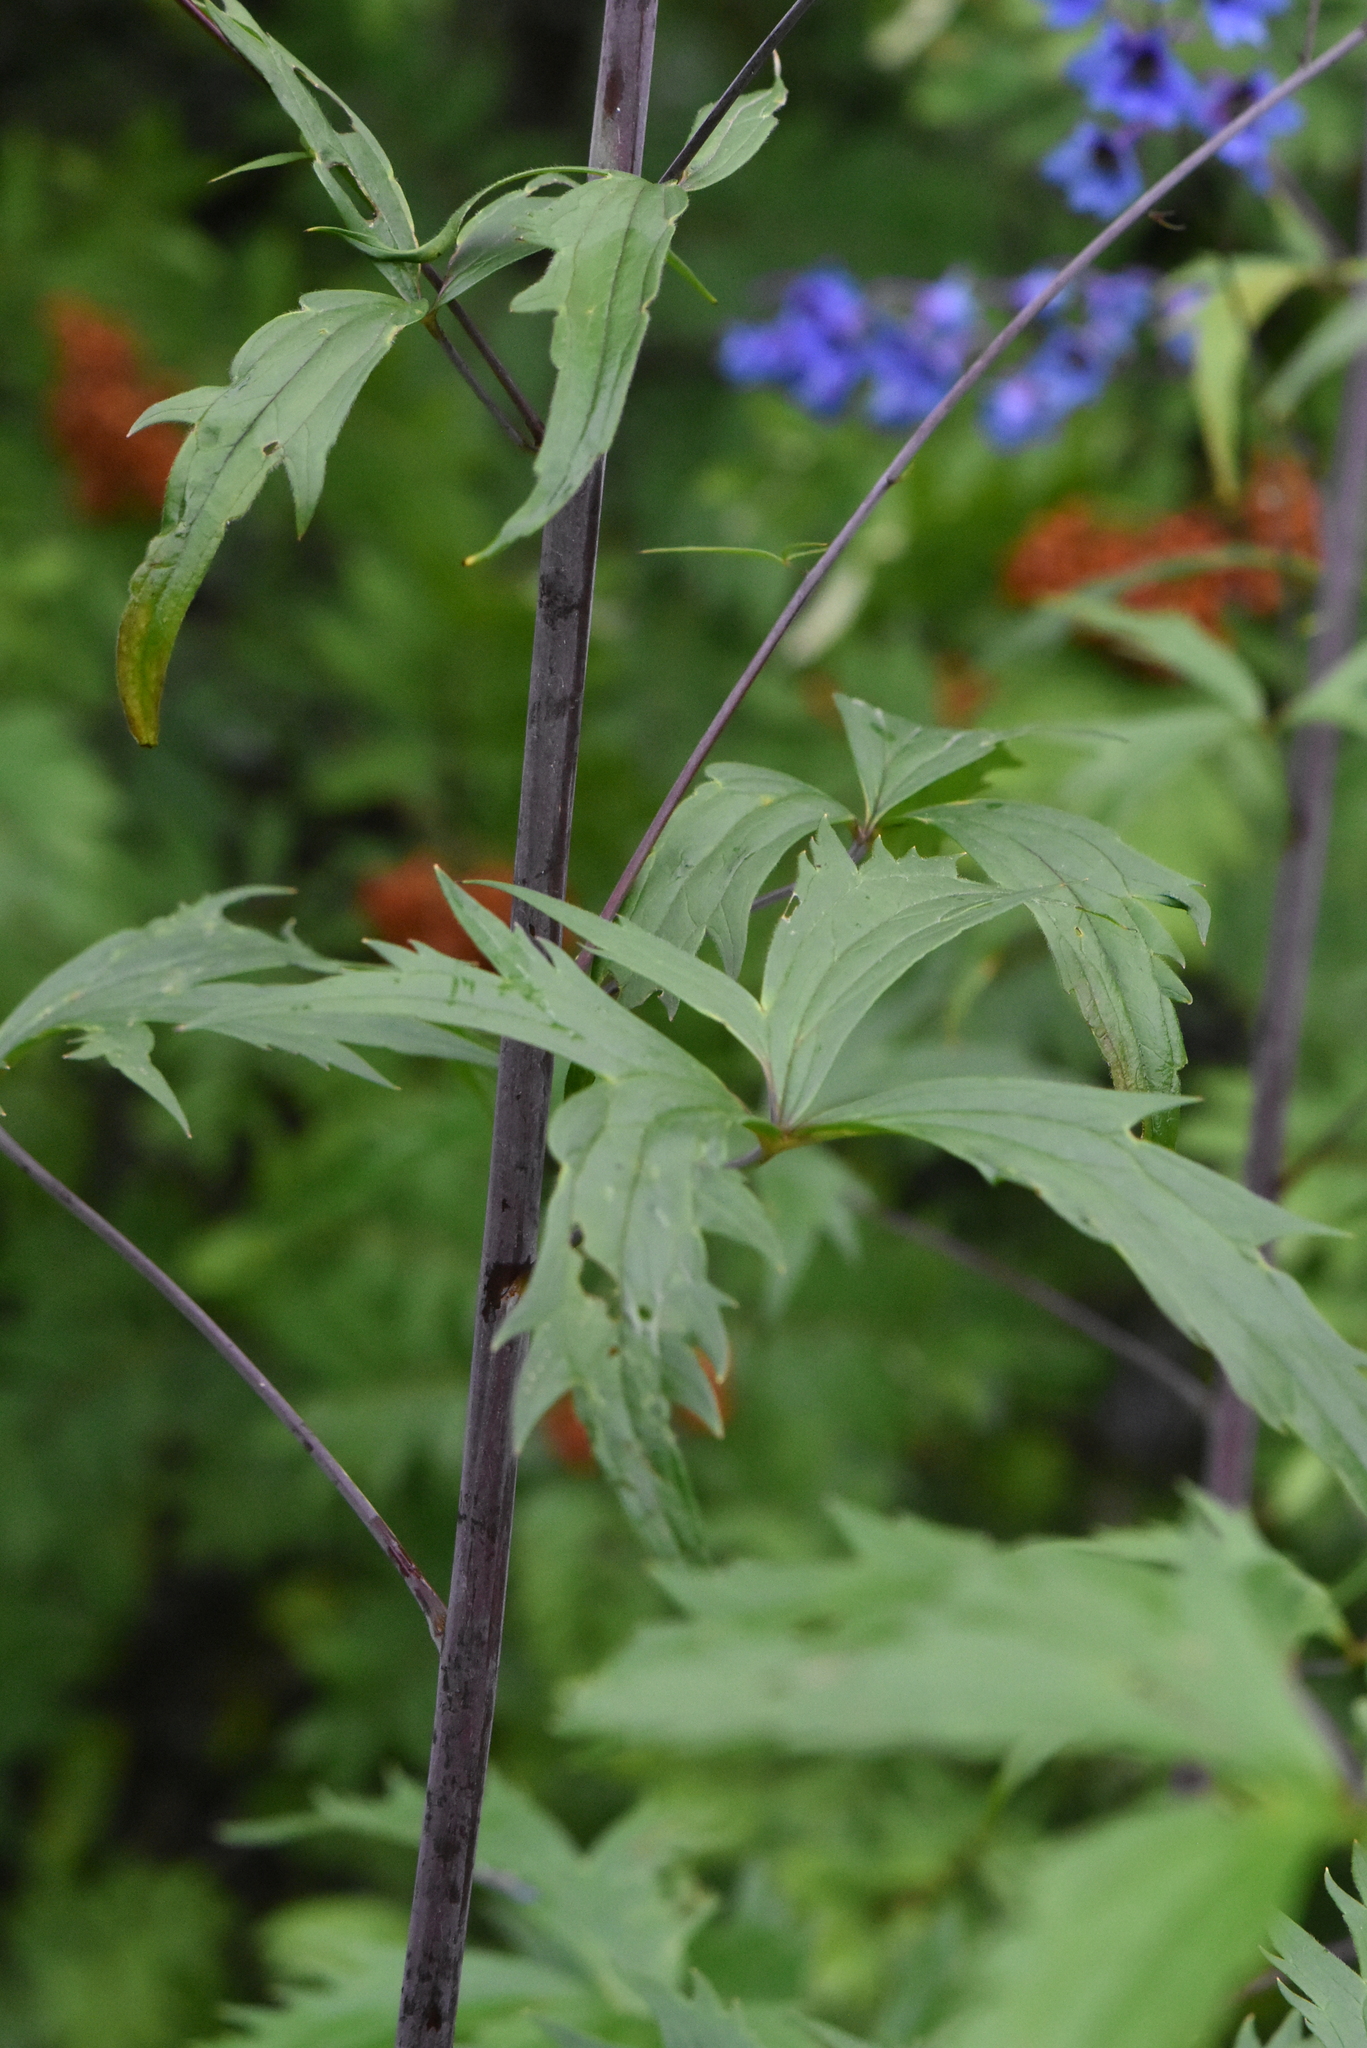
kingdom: Plantae
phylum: Tracheophyta
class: Magnoliopsida
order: Ranunculales
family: Ranunculaceae
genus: Delphinium
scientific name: Delphinium elatum
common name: Candle larkspur
